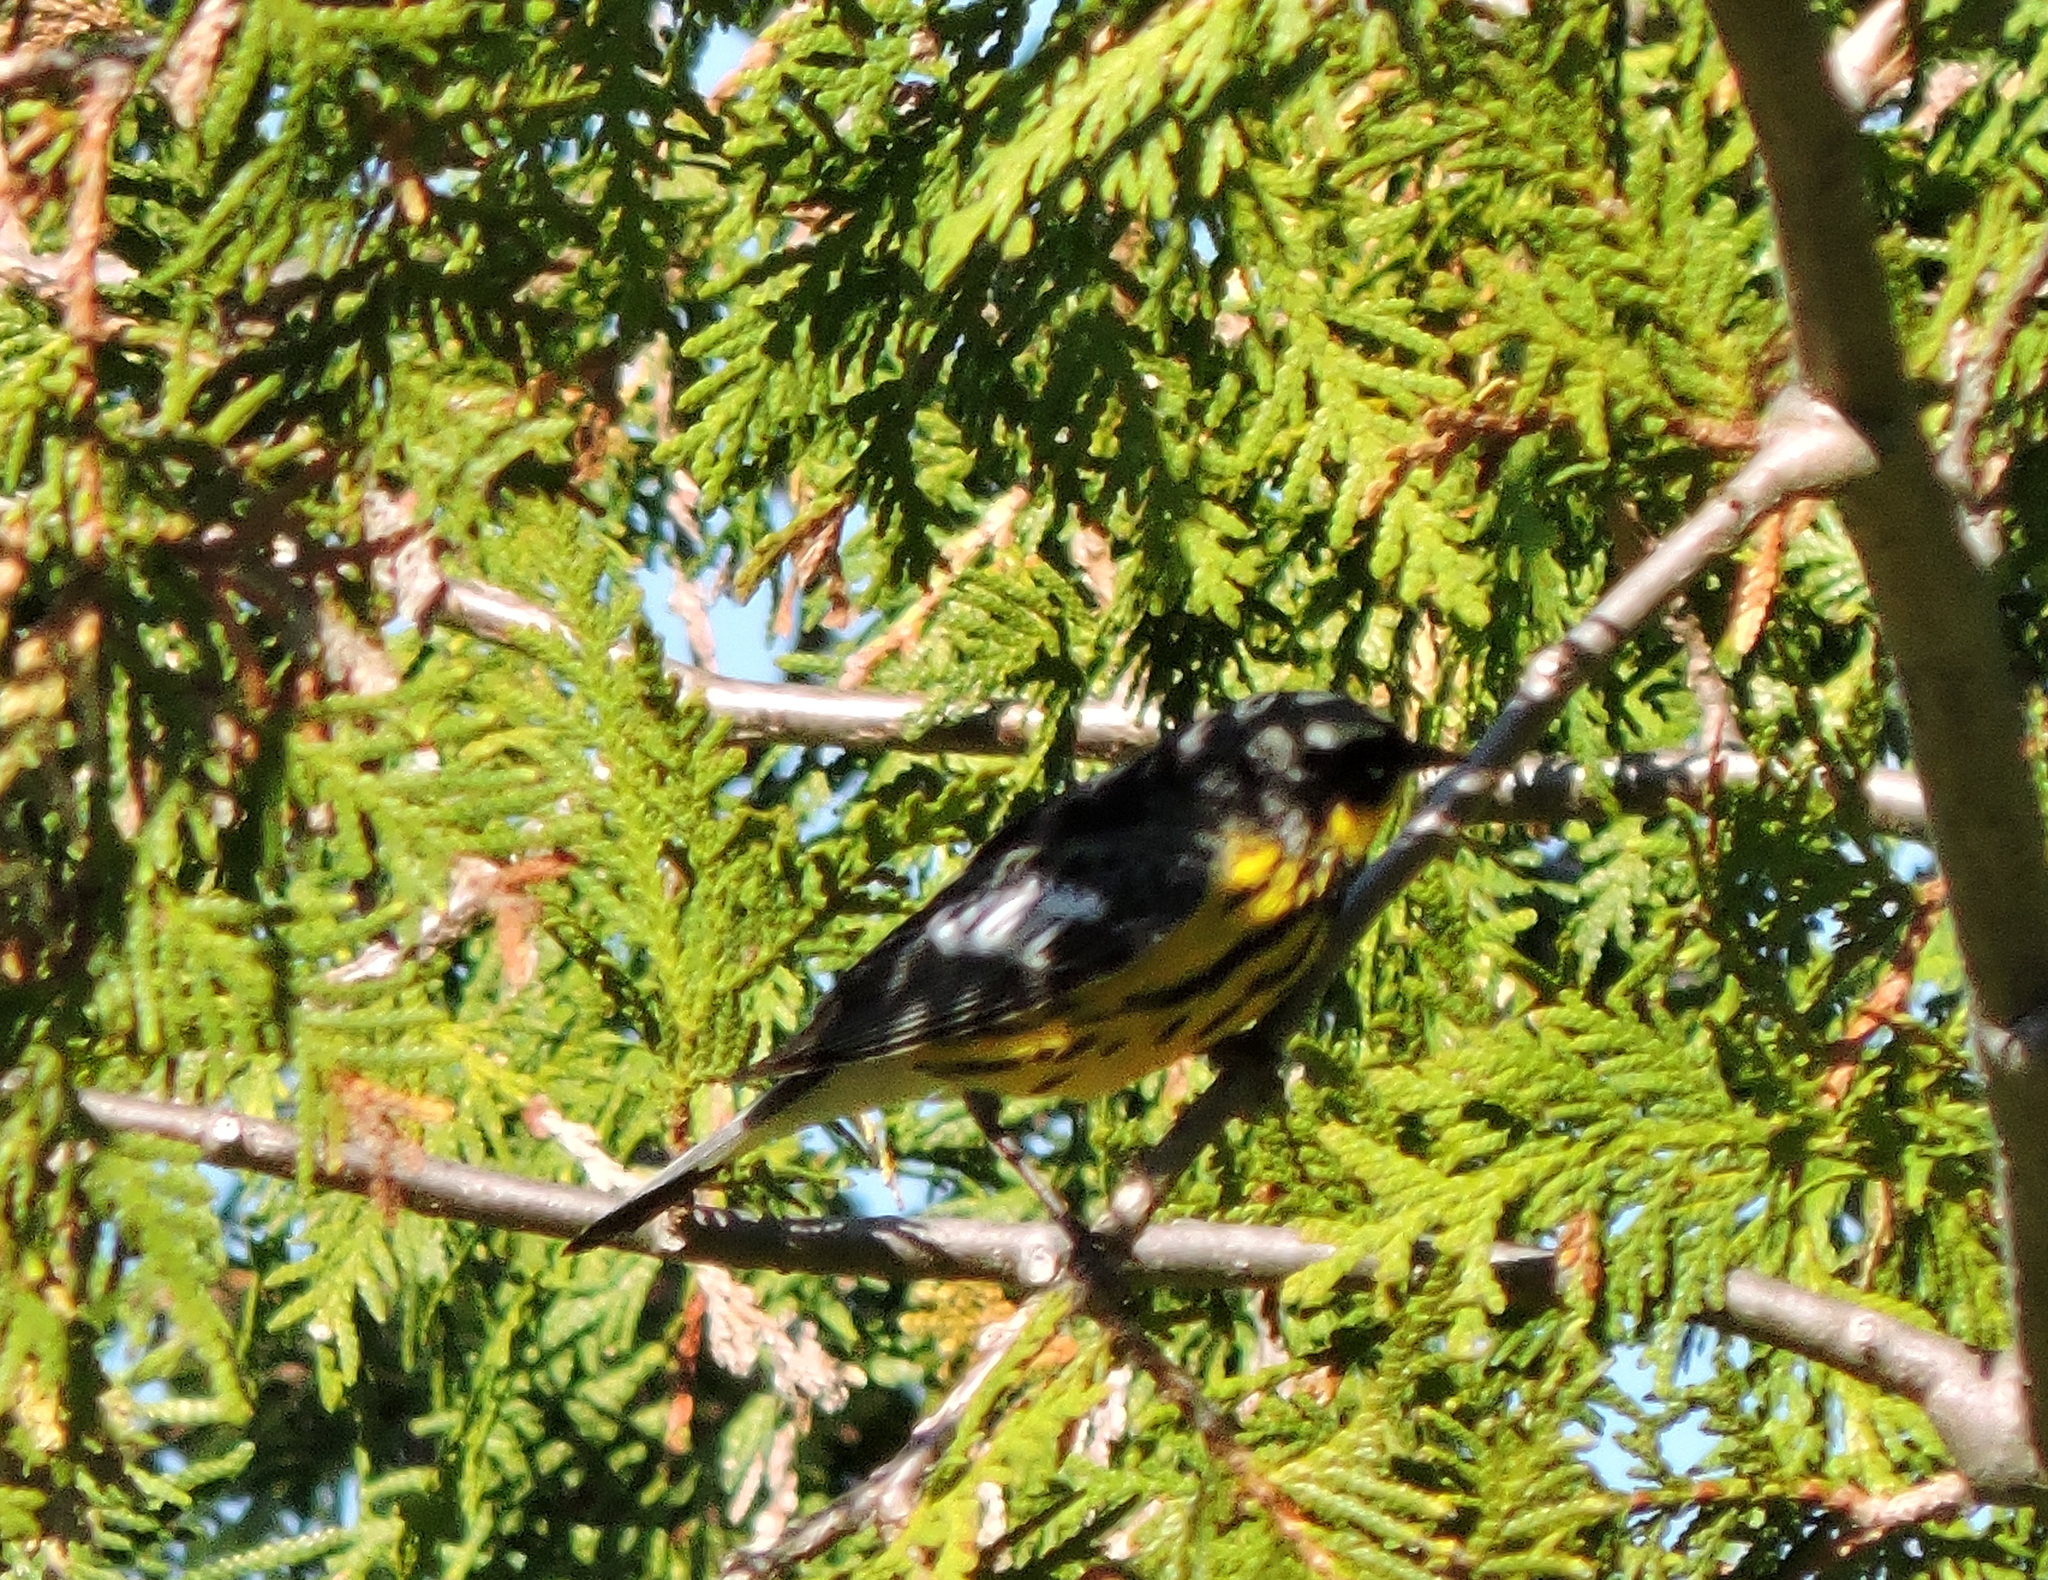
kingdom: Animalia
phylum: Chordata
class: Aves
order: Passeriformes
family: Parulidae
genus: Setophaga
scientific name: Setophaga magnolia
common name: Magnolia warbler
